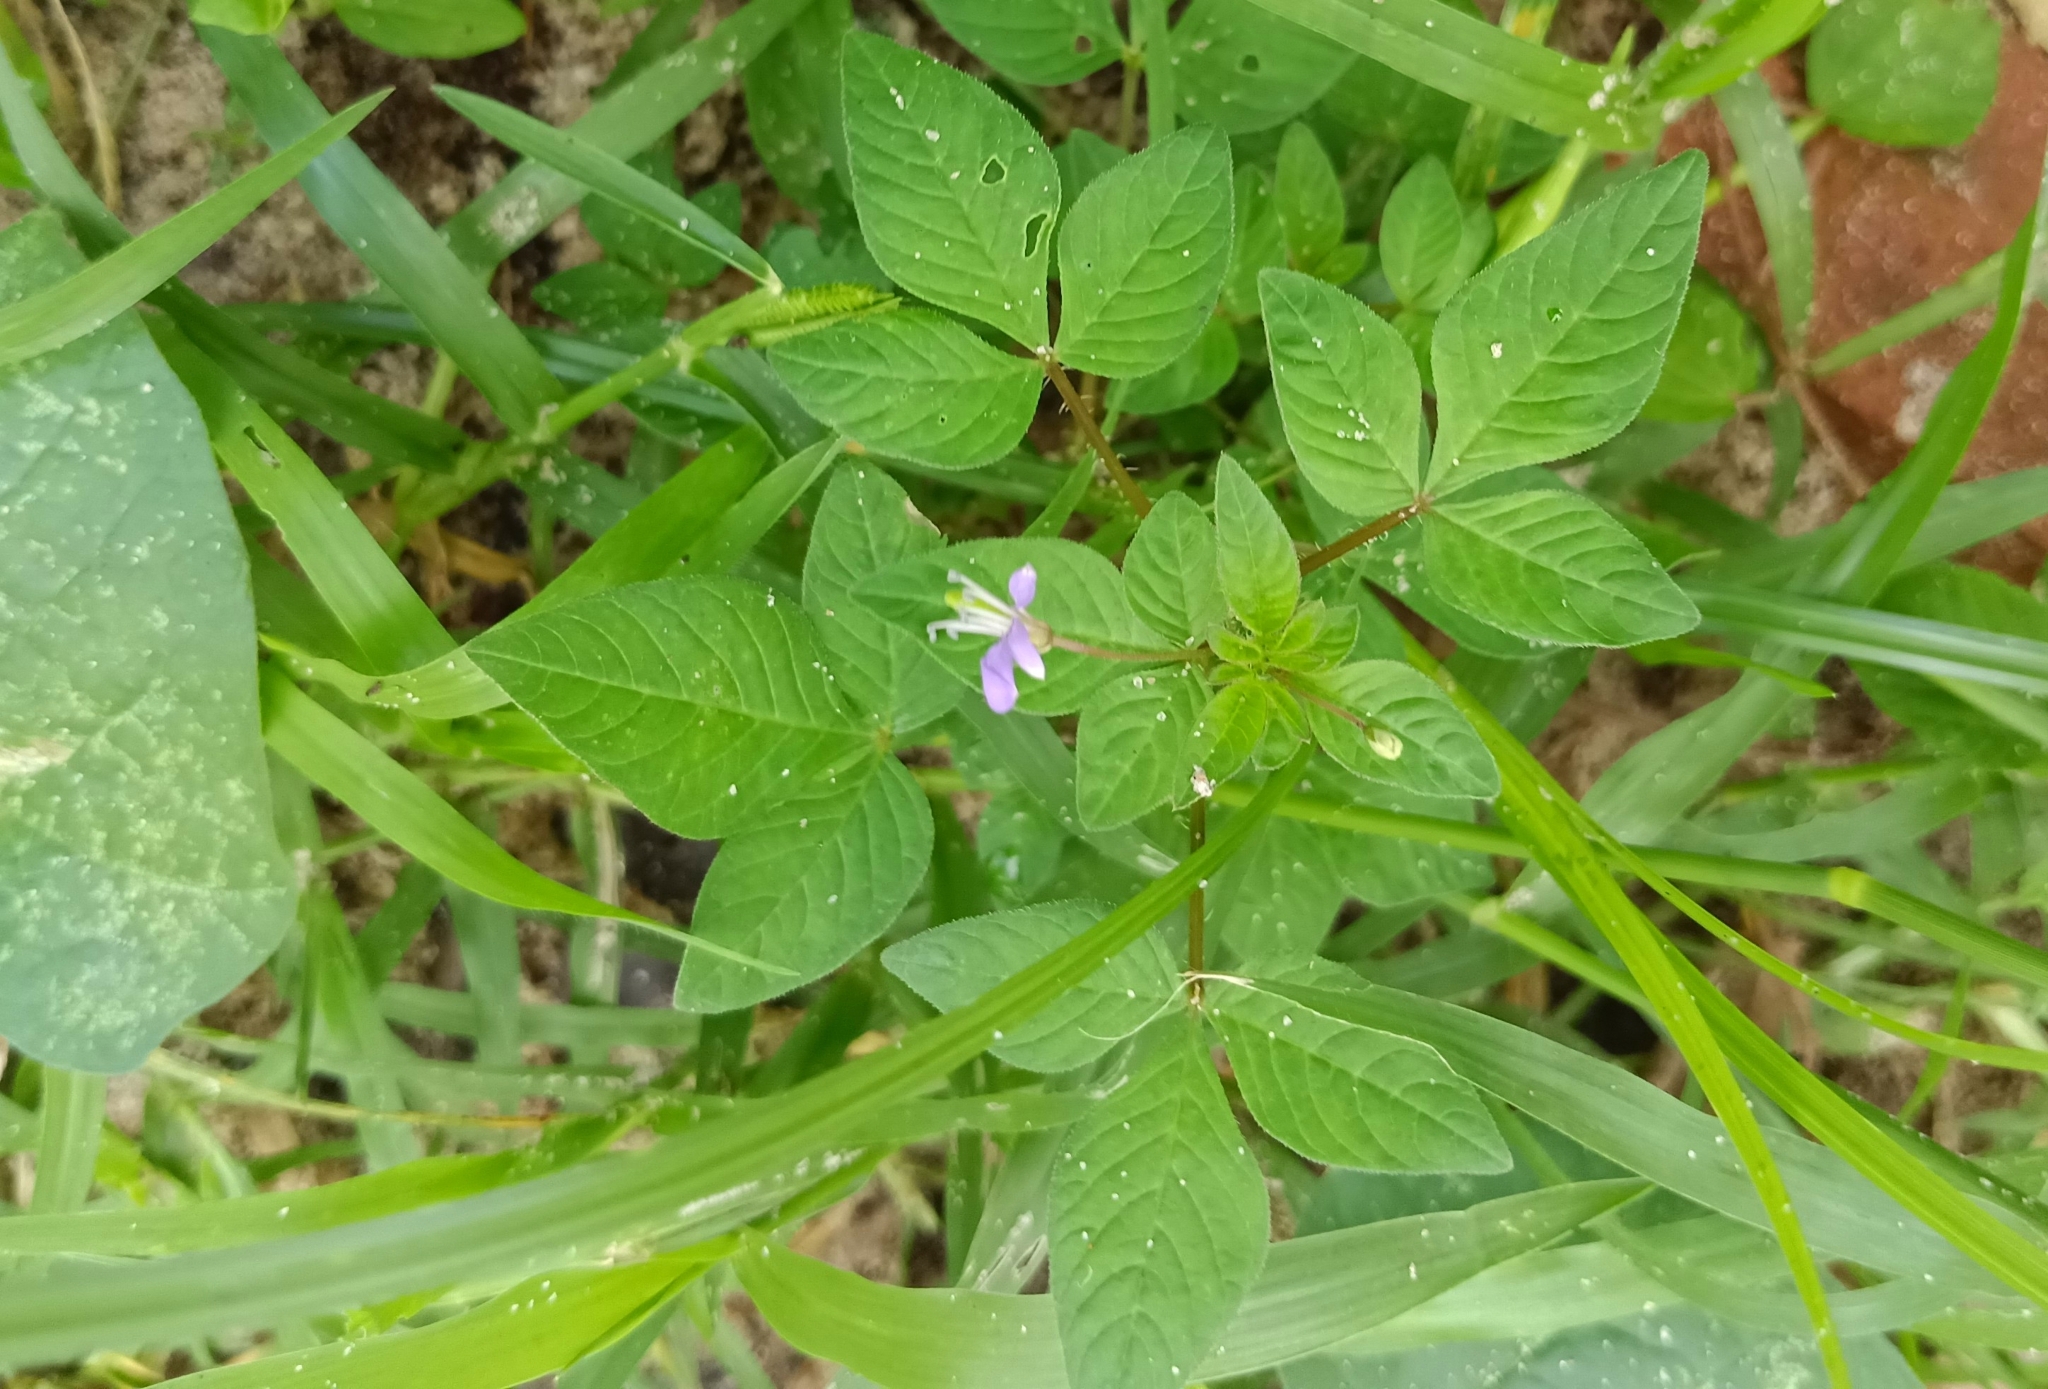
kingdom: Plantae
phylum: Tracheophyta
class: Magnoliopsida
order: Brassicales
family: Cleomaceae
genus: Sieruela
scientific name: Sieruela rutidosperma
